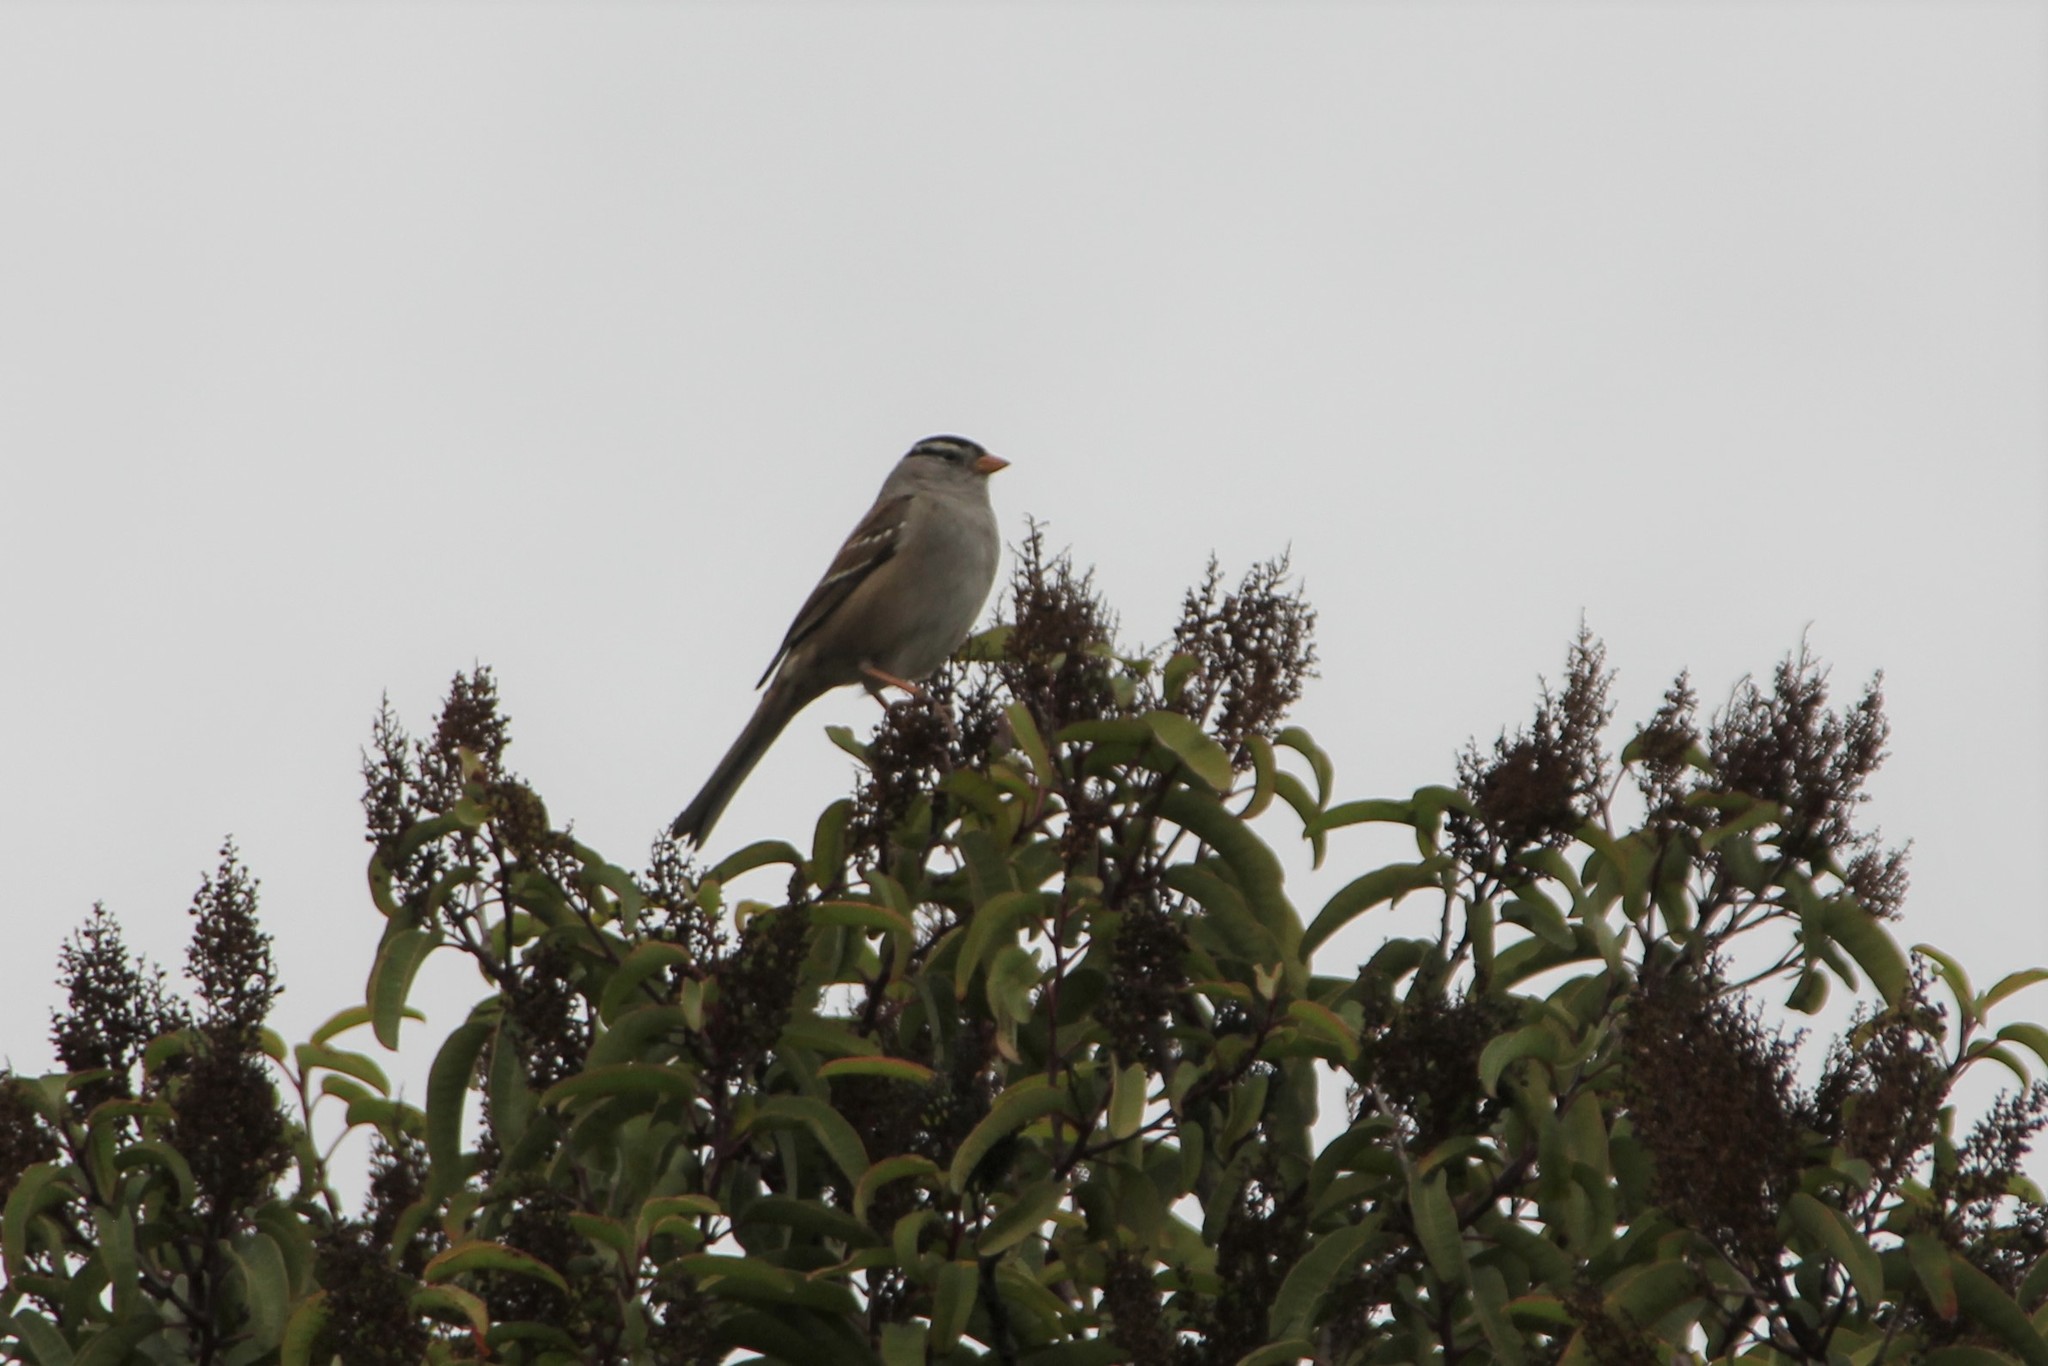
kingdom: Animalia
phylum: Chordata
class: Aves
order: Passeriformes
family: Passerellidae
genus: Zonotrichia
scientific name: Zonotrichia leucophrys
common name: White-crowned sparrow
